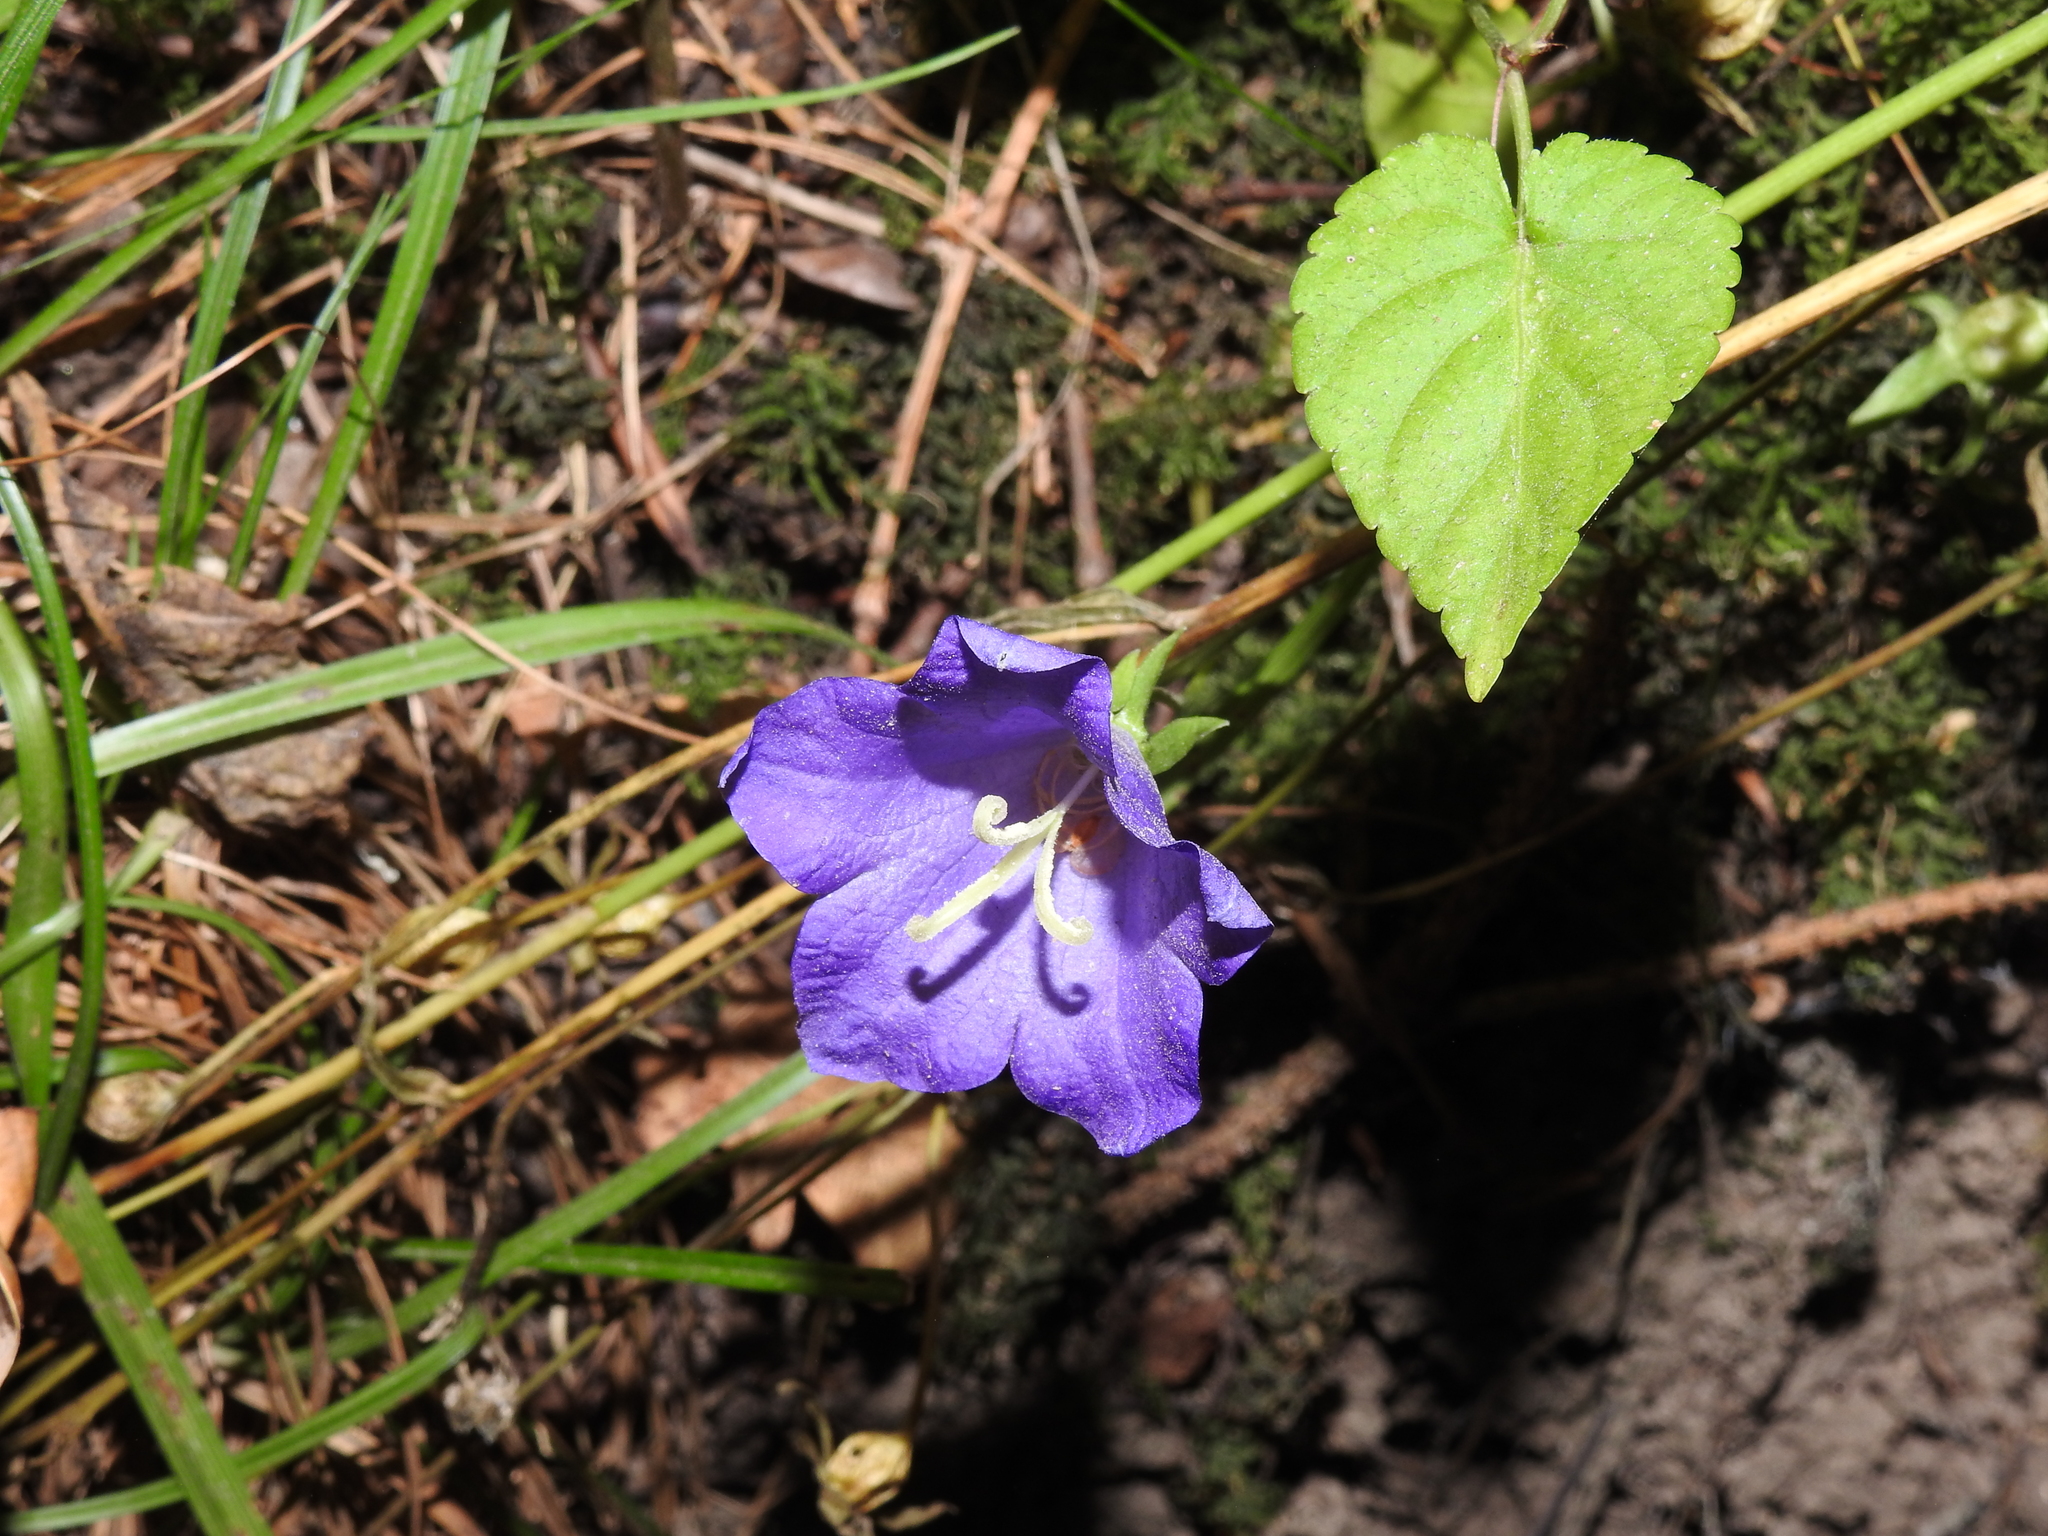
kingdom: Plantae
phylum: Tracheophyta
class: Magnoliopsida
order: Asterales
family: Campanulaceae
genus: Campanula
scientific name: Campanula persicifolia
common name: Peach-leaved bellflower
